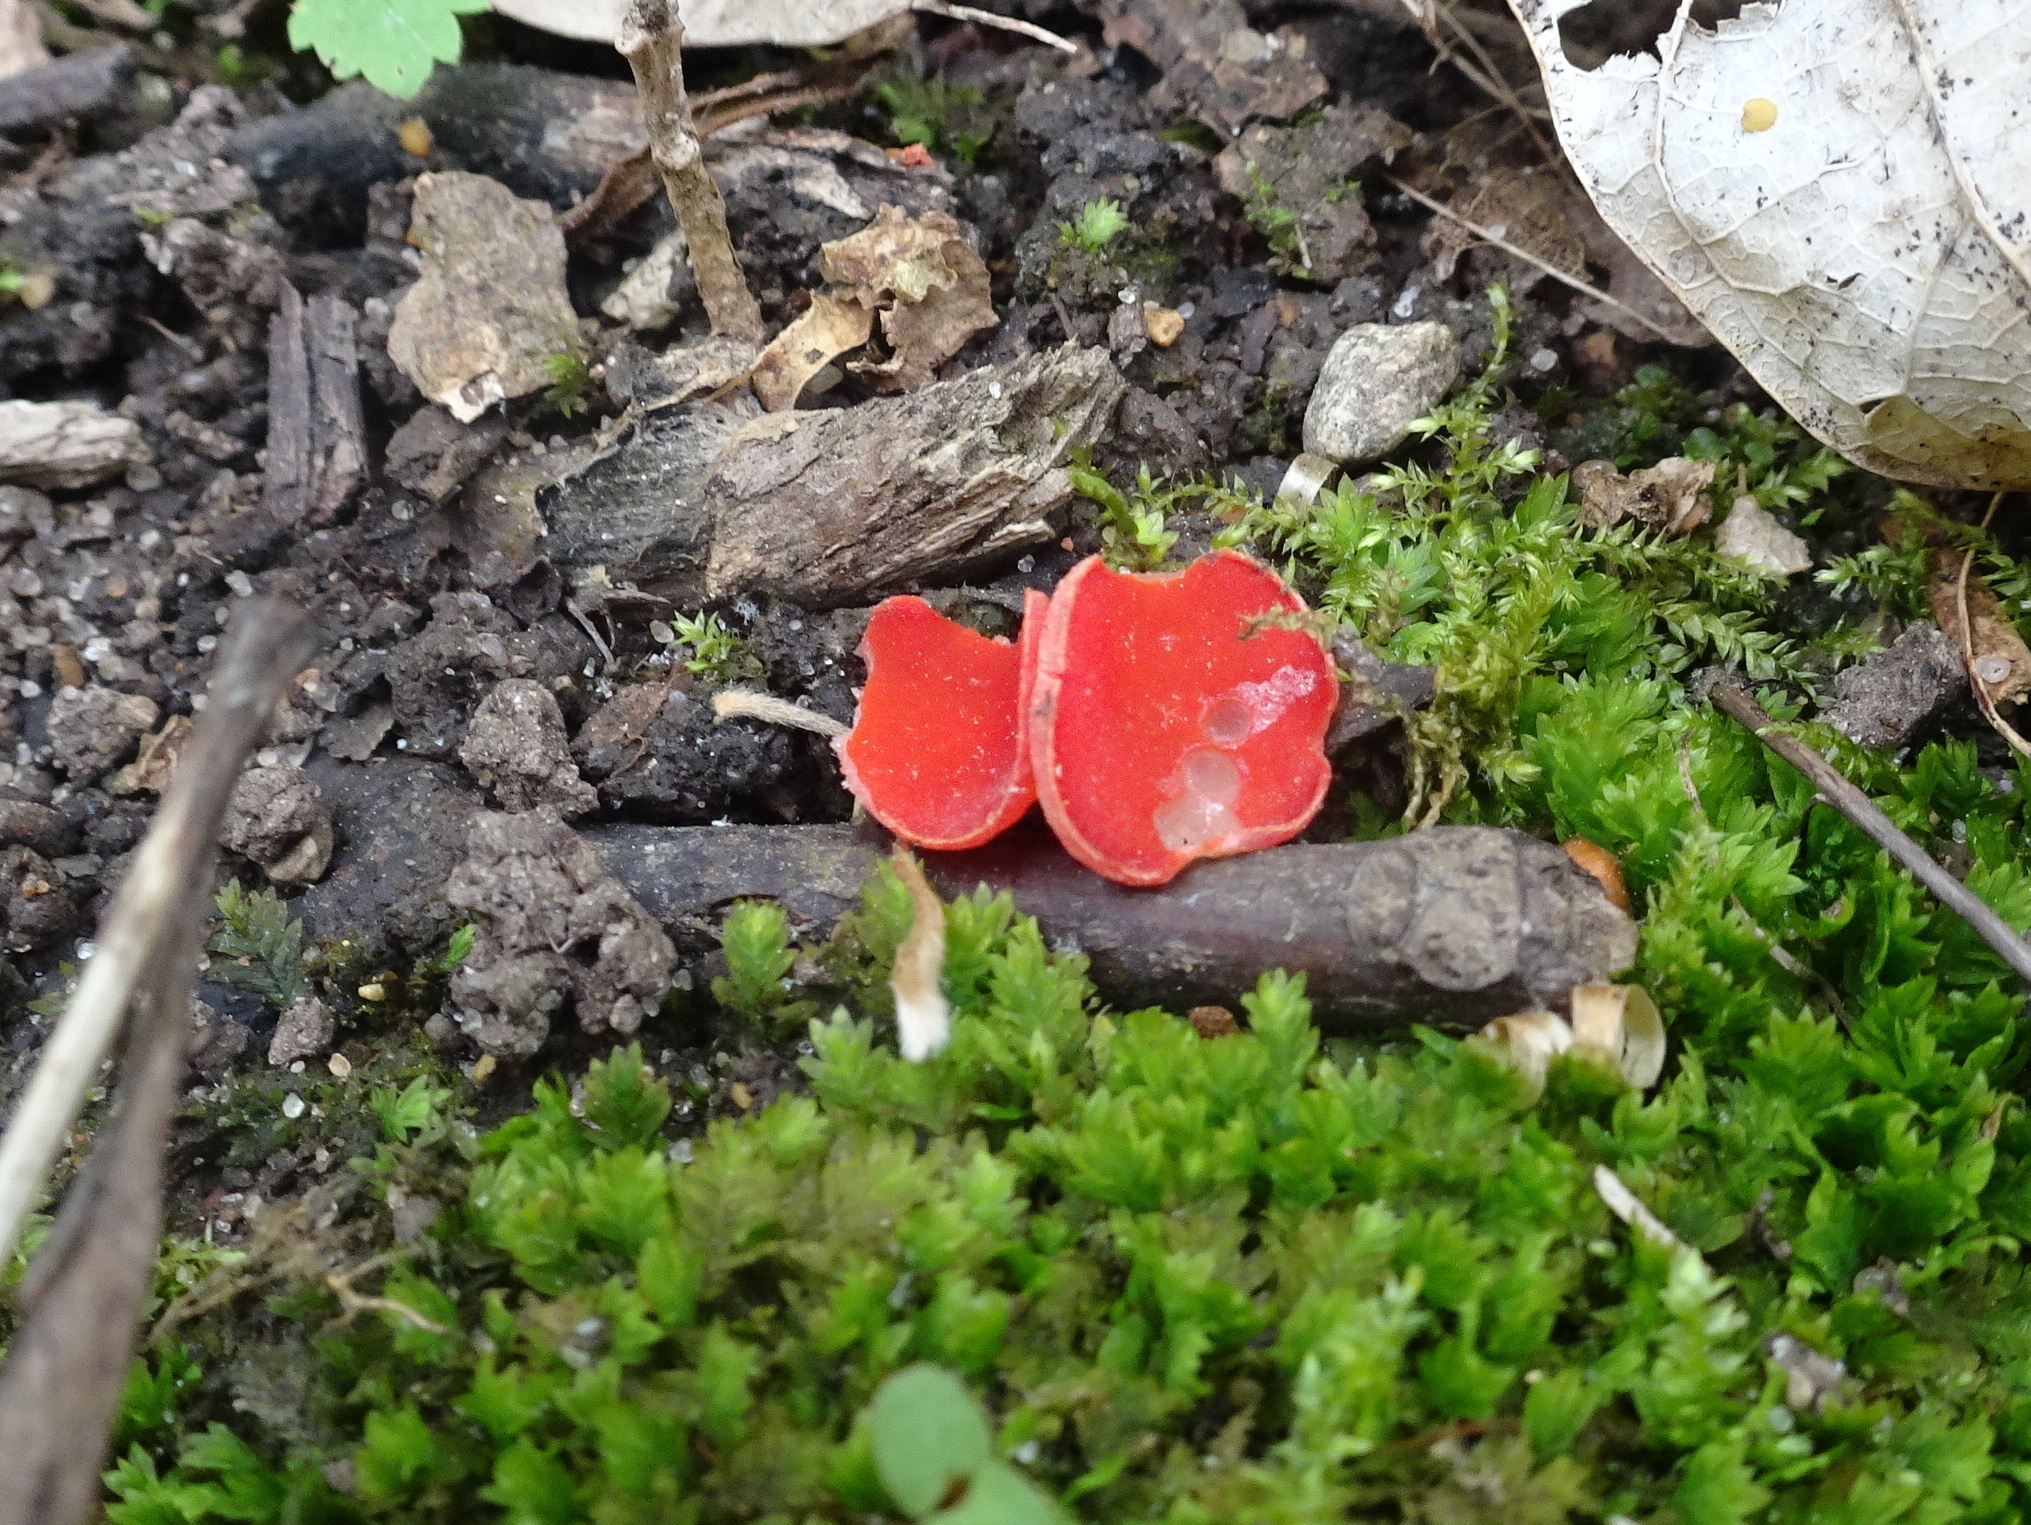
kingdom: Fungi
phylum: Ascomycota
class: Pezizomycetes
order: Pezizales
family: Sarcoscyphaceae
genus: Sarcoscypha
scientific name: Sarcoscypha occidentalis
